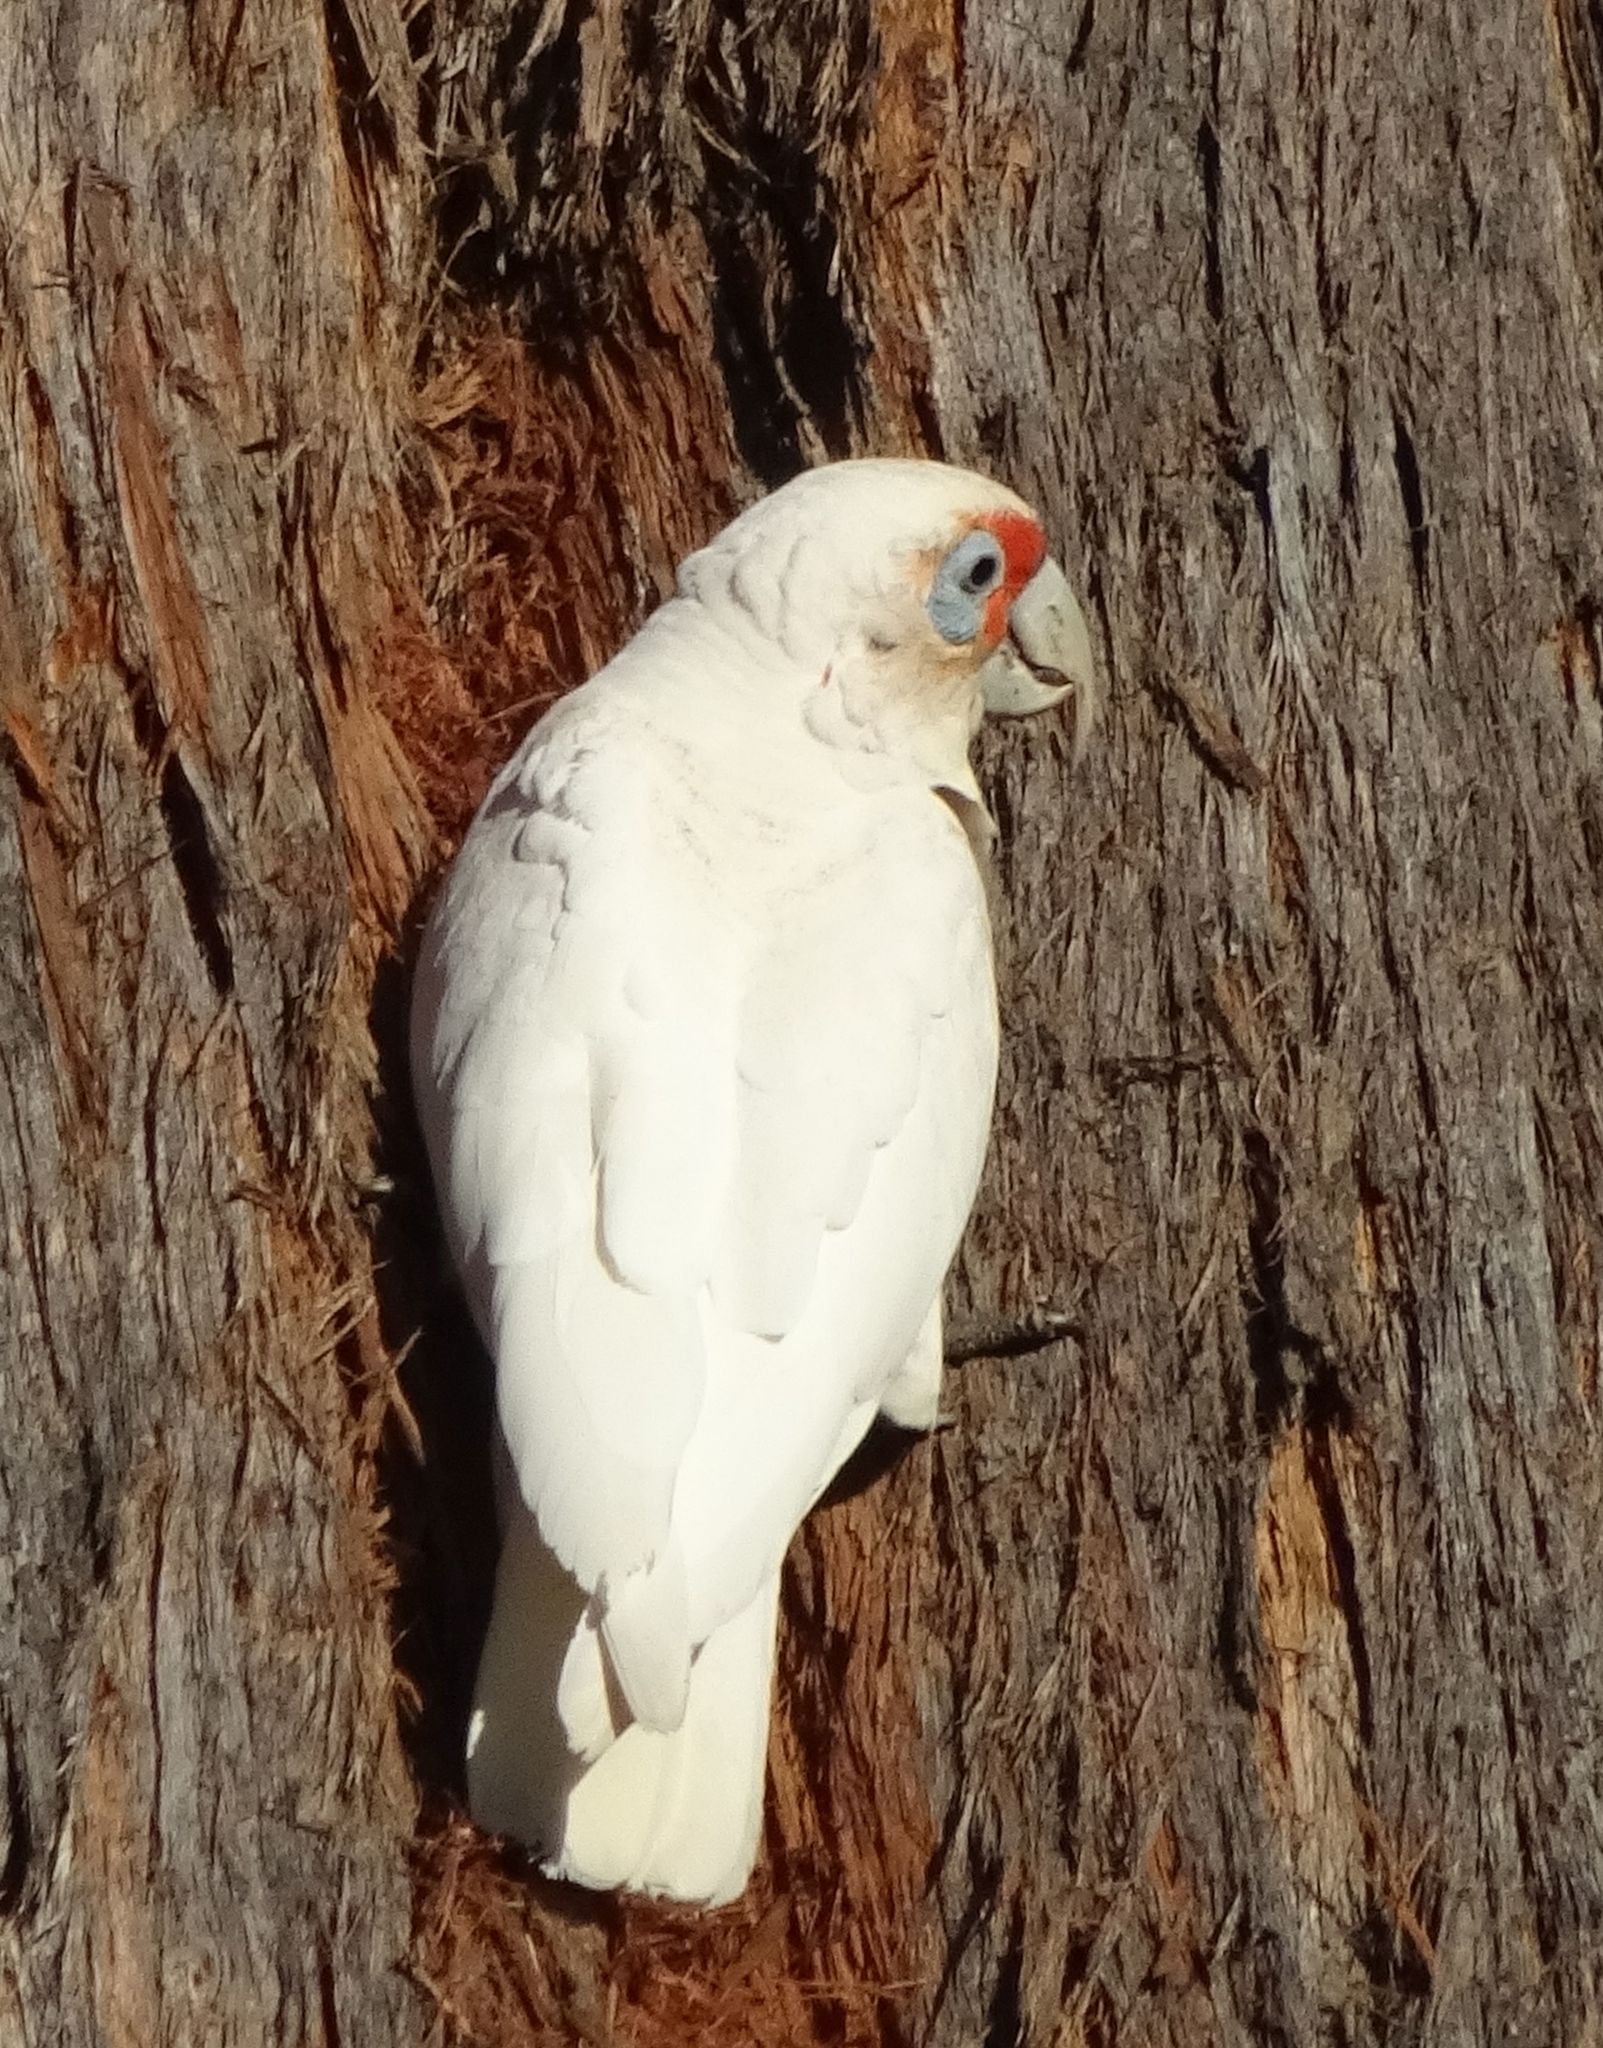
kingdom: Animalia
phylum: Chordata
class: Aves
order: Psittaciformes
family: Psittacidae
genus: Cacatua
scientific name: Cacatua tenuirostris
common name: Long-billed corella
